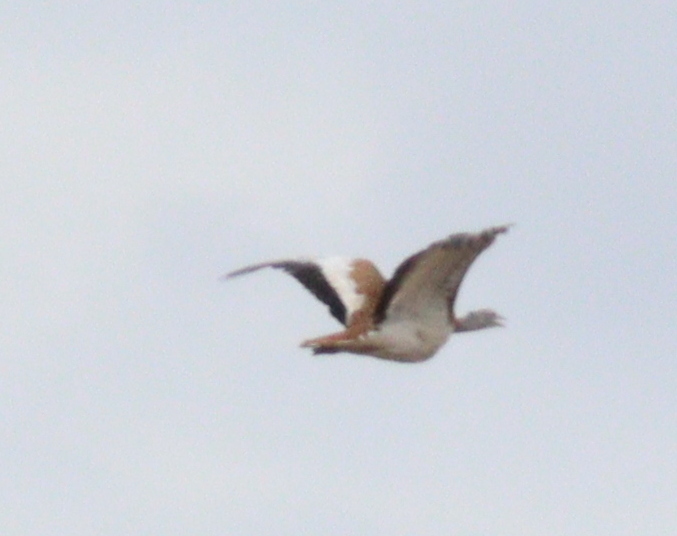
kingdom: Animalia
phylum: Chordata
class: Aves
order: Otidiformes
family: Otididae
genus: Otis
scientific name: Otis tarda
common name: Great bustard
